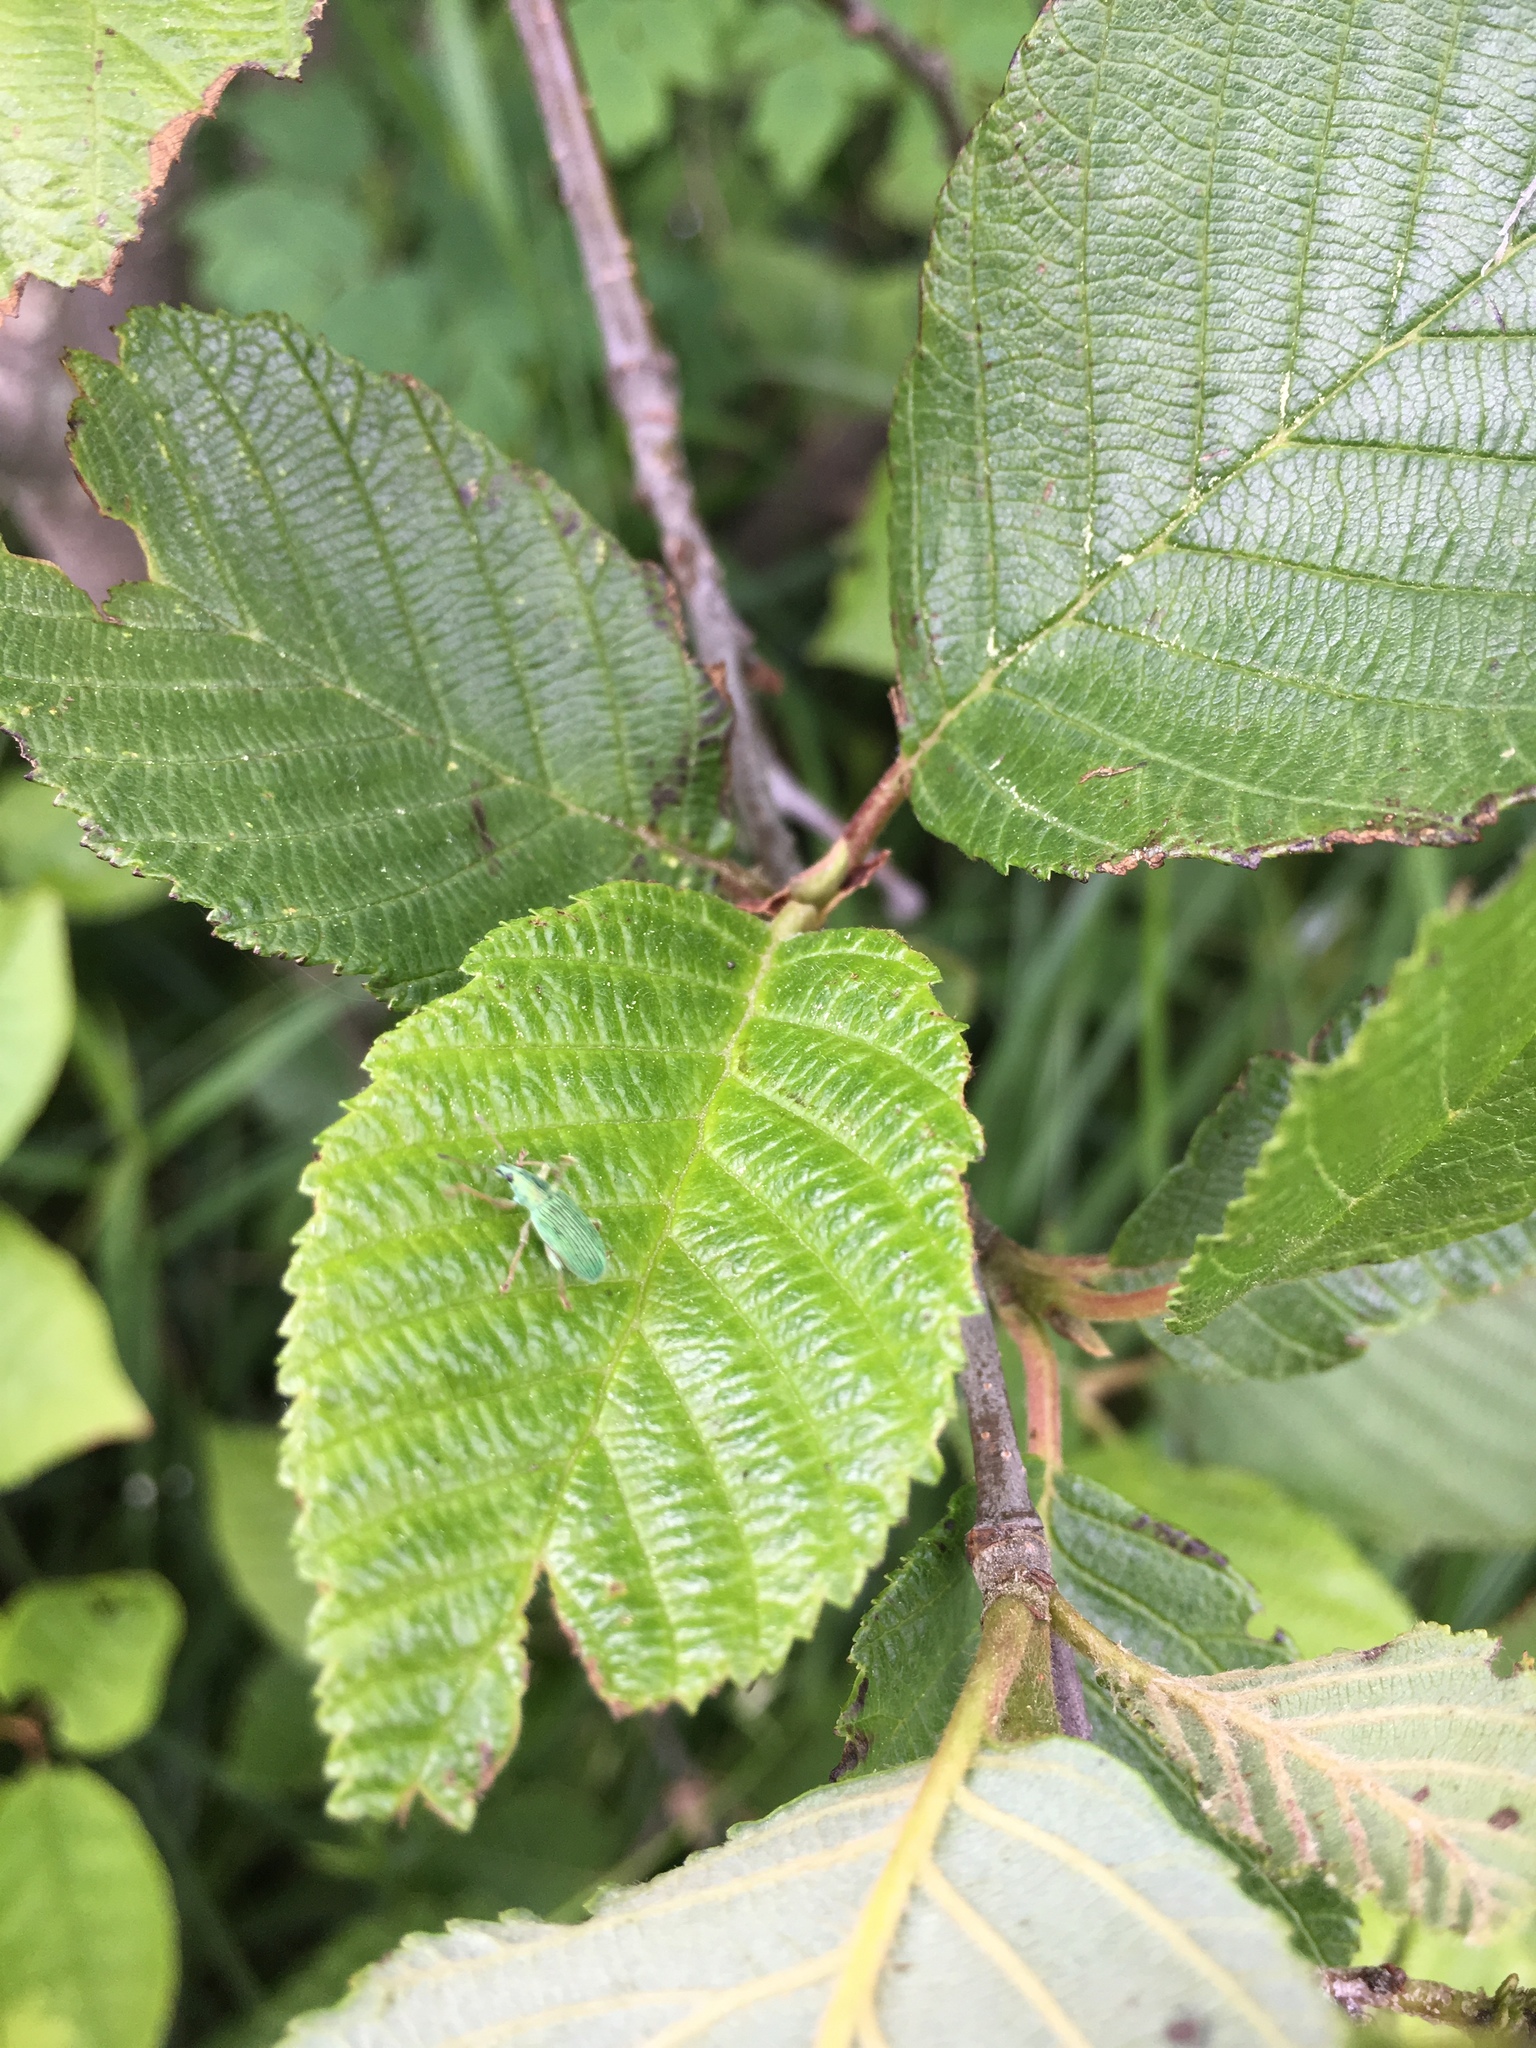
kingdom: Animalia
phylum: Arthropoda
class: Insecta
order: Coleoptera
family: Curculionidae
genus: Polydrusus
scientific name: Polydrusus formosus
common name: Weevil
